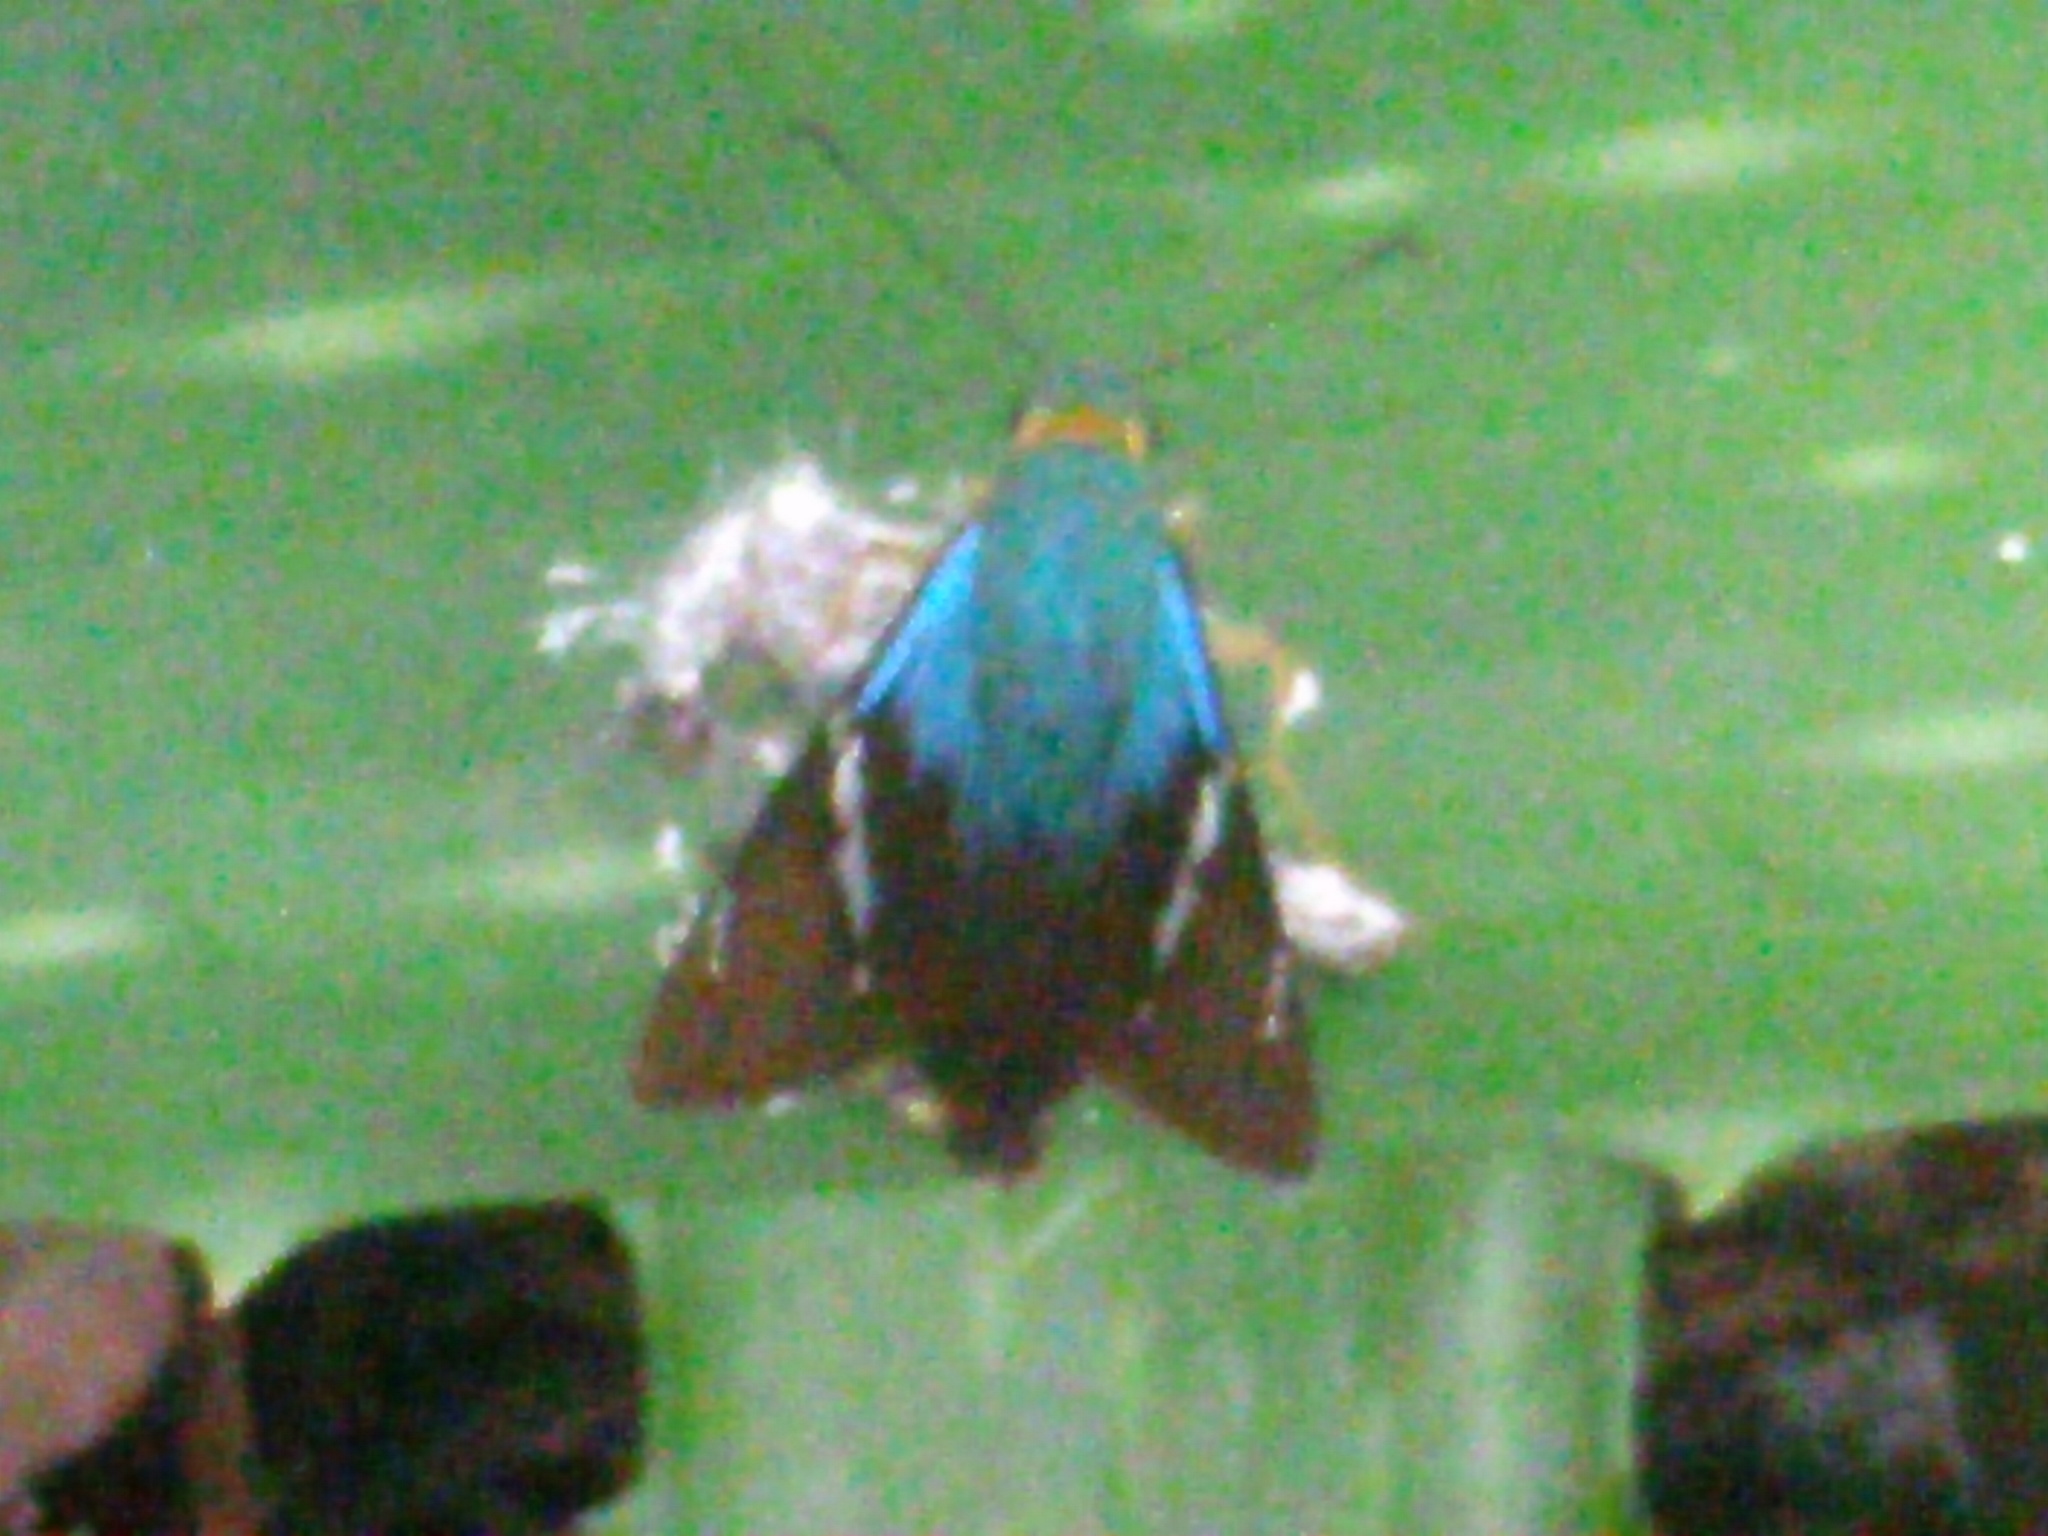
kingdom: Animalia
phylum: Arthropoda
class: Insecta
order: Lepidoptera
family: Hesperiidae
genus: Astraptes
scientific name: Astraptes fulgerator
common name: Two-barred flasher
